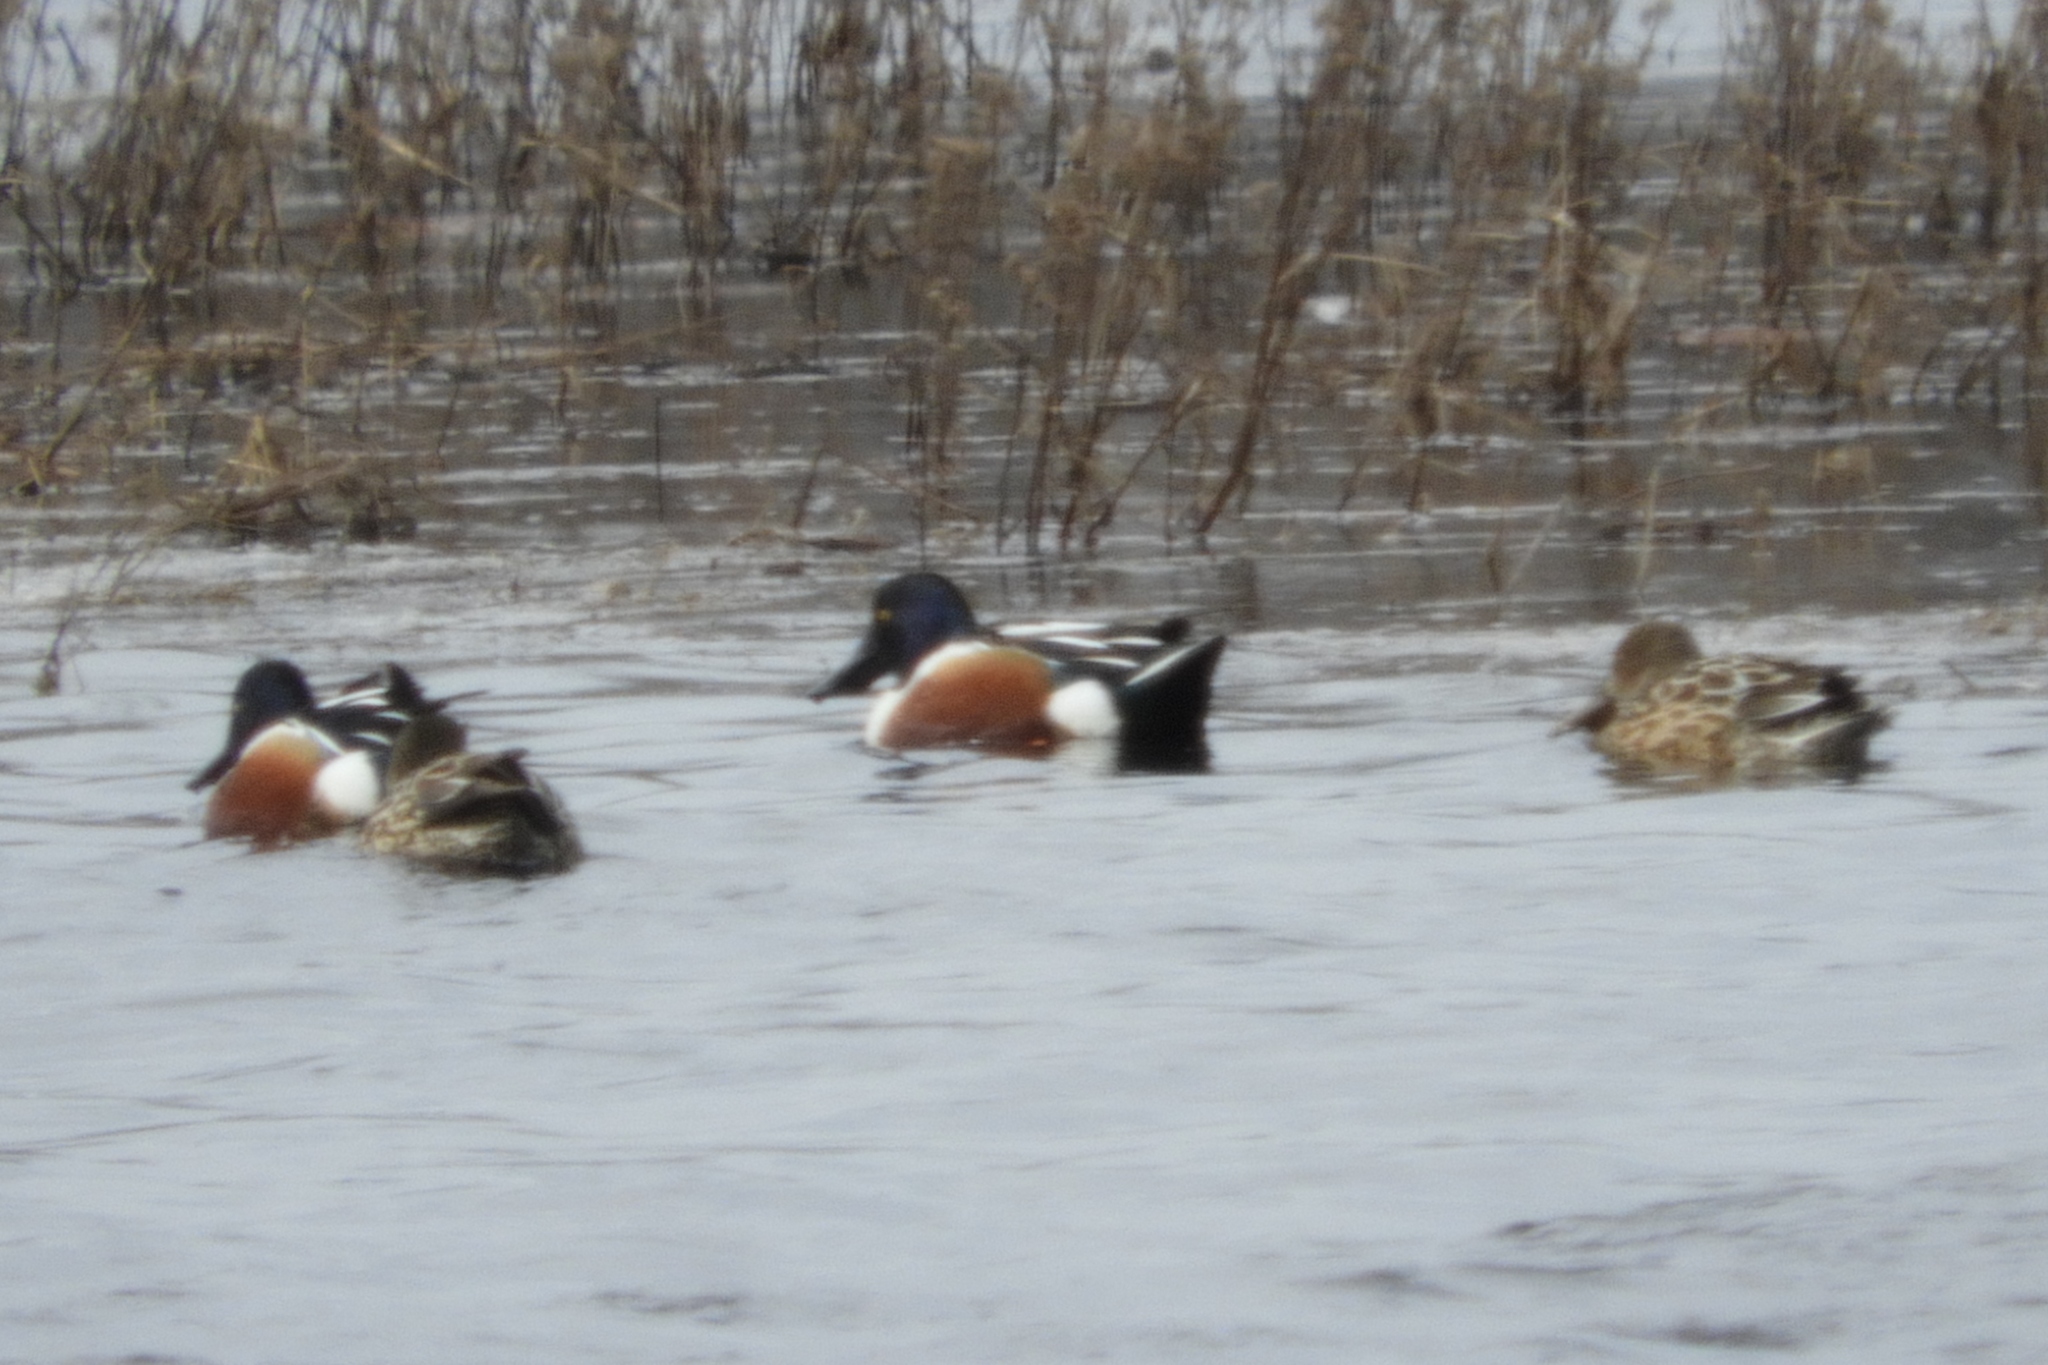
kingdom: Animalia
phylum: Chordata
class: Aves
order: Anseriformes
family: Anatidae
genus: Spatula
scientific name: Spatula clypeata
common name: Northern shoveler
